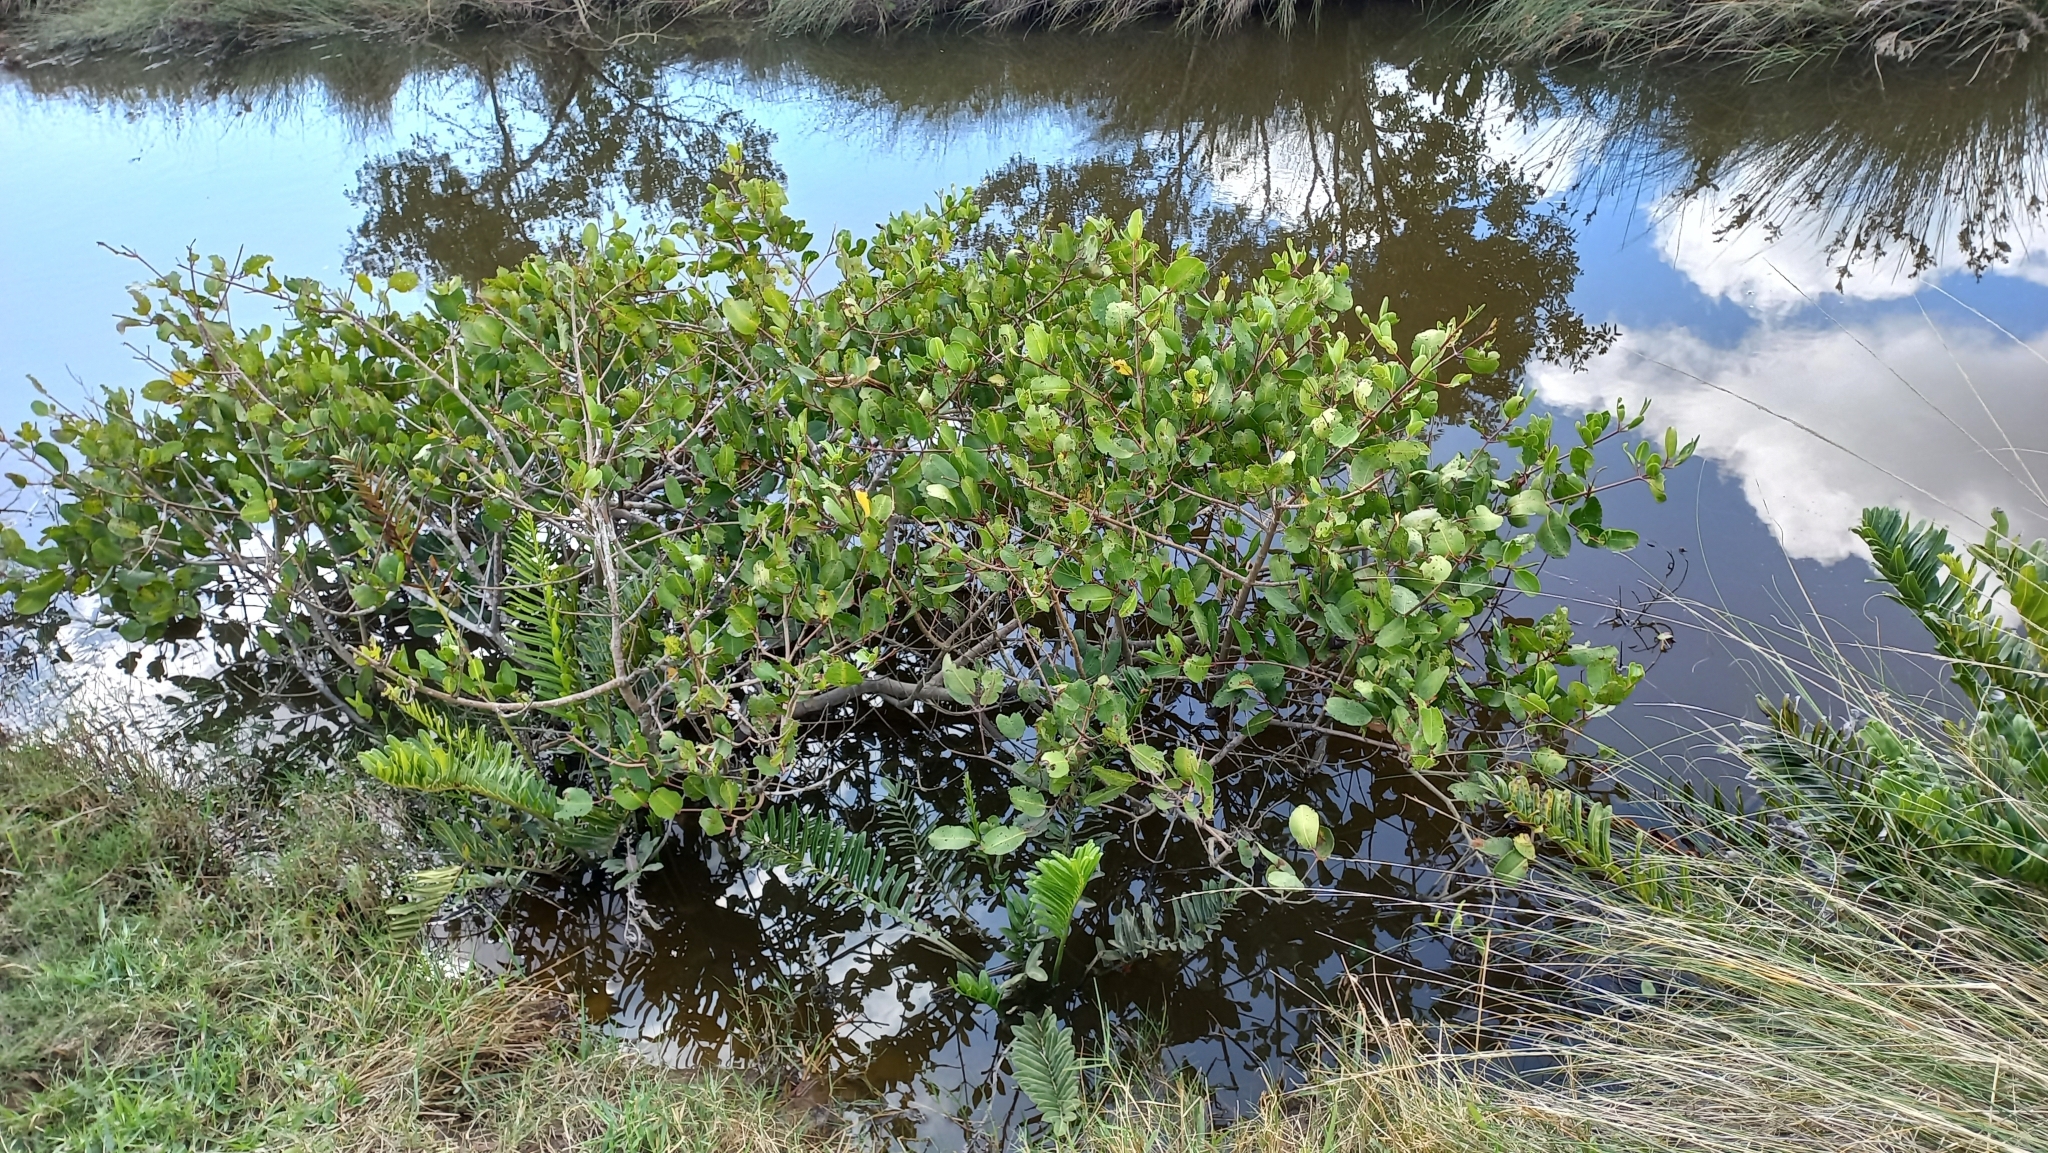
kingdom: Plantae
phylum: Tracheophyta
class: Magnoliopsida
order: Myrtales
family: Combretaceae
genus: Laguncularia
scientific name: Laguncularia racemosa
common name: White mangrove
